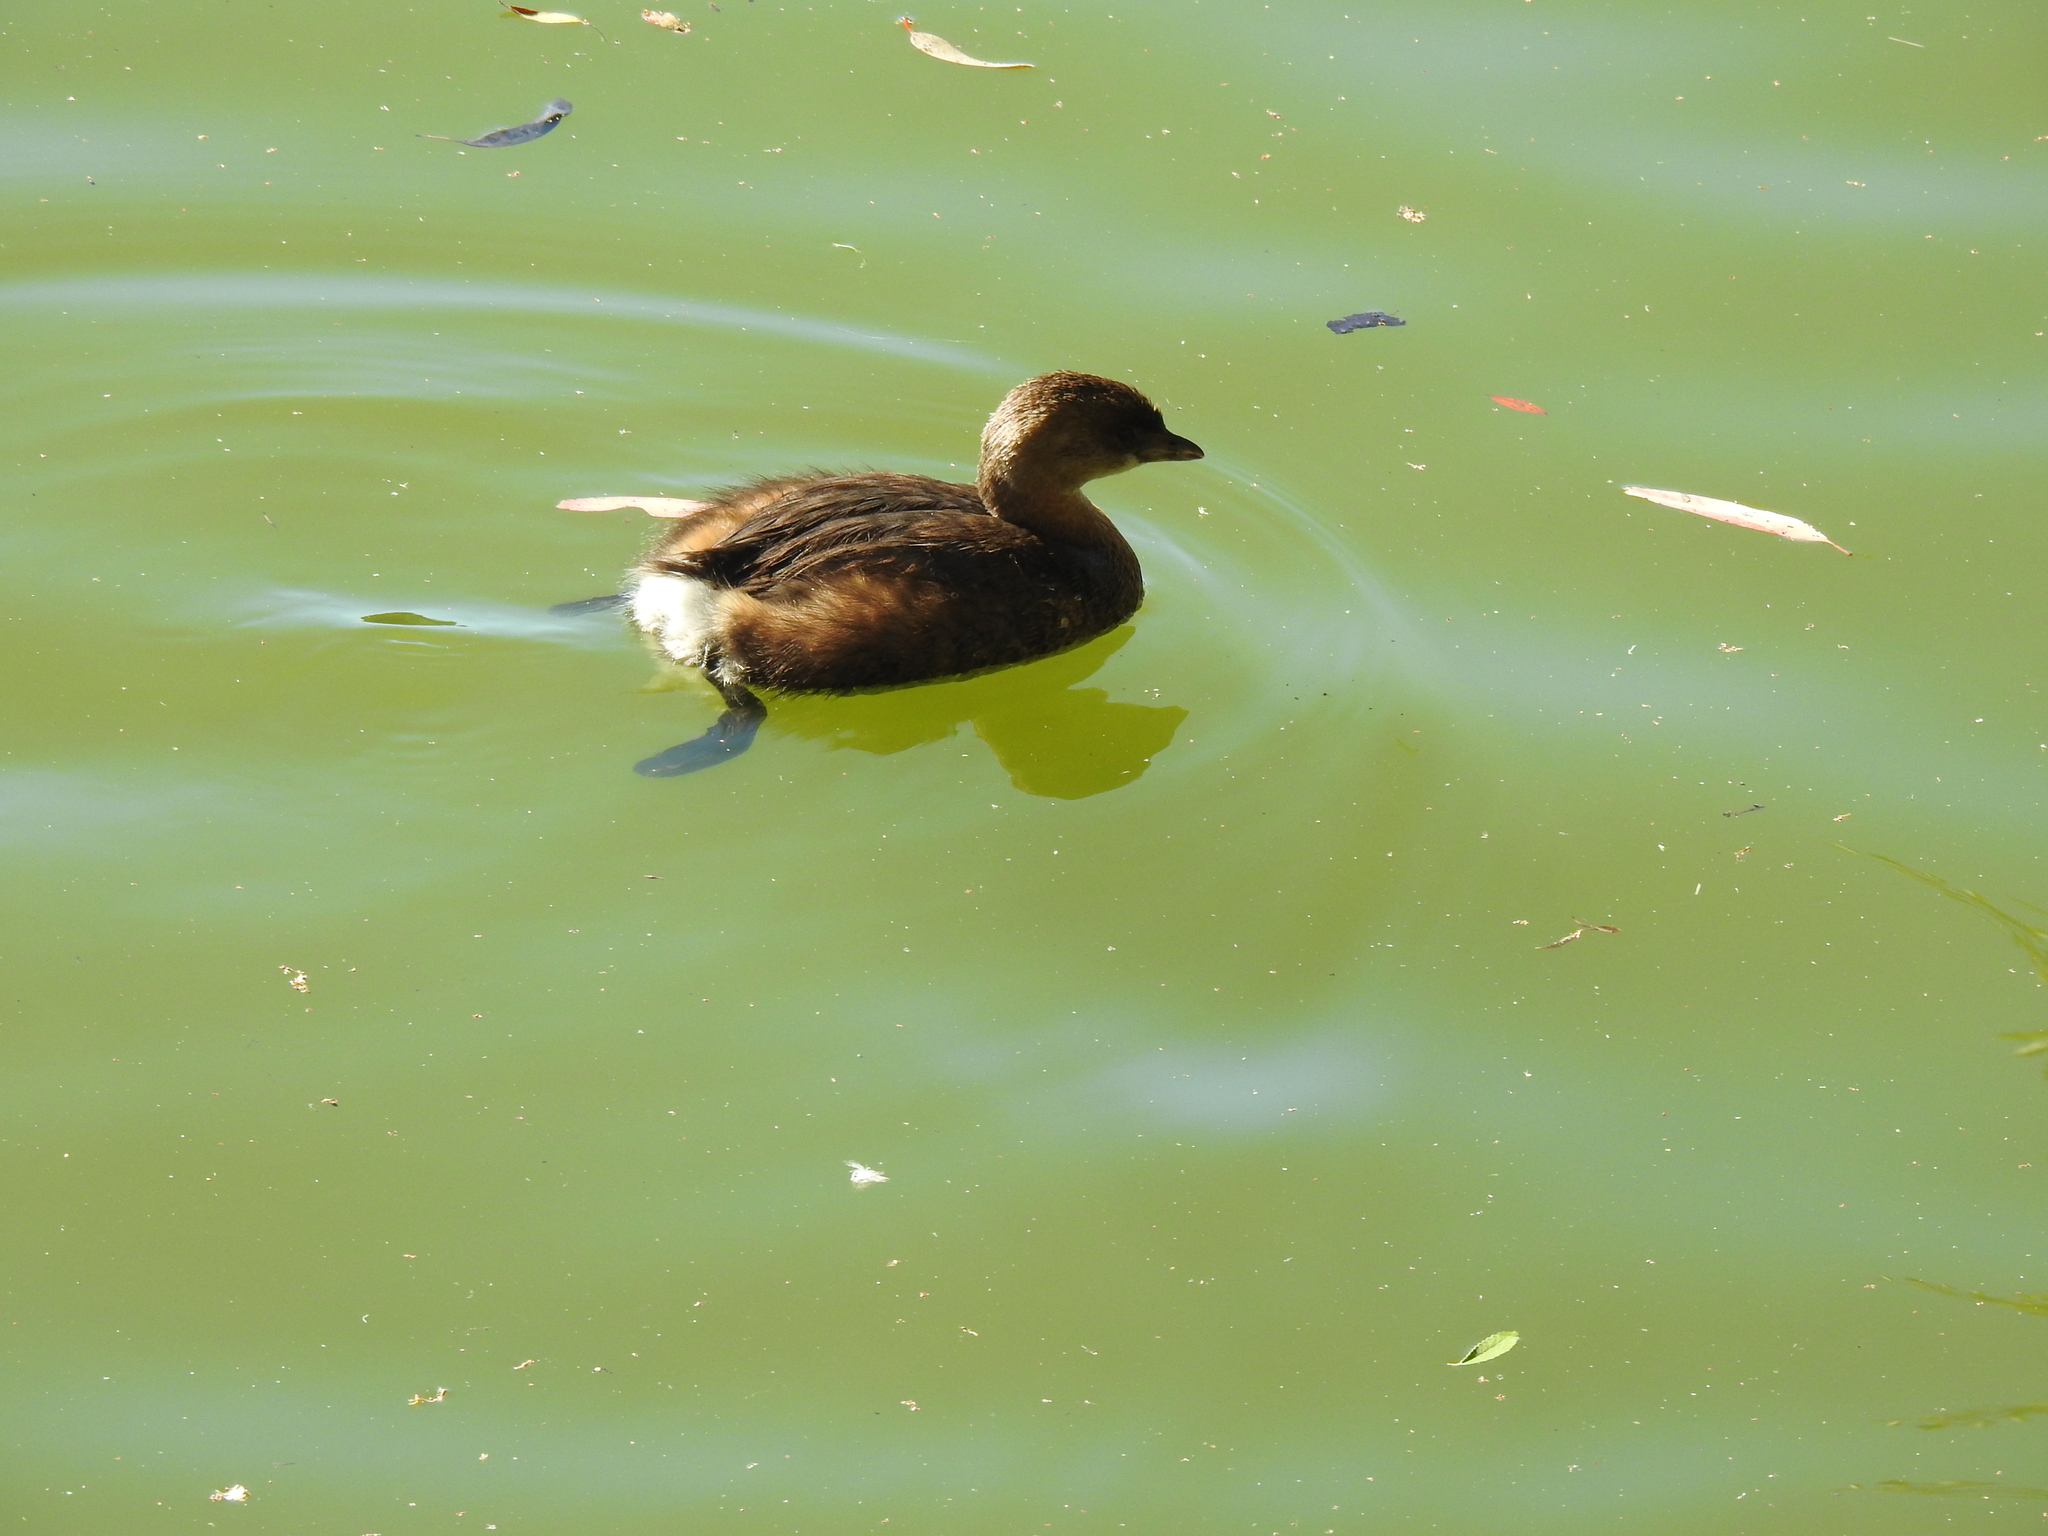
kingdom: Animalia
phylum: Chordata
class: Aves
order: Podicipediformes
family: Podicipedidae
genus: Podilymbus
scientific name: Podilymbus podiceps
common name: Pied-billed grebe
